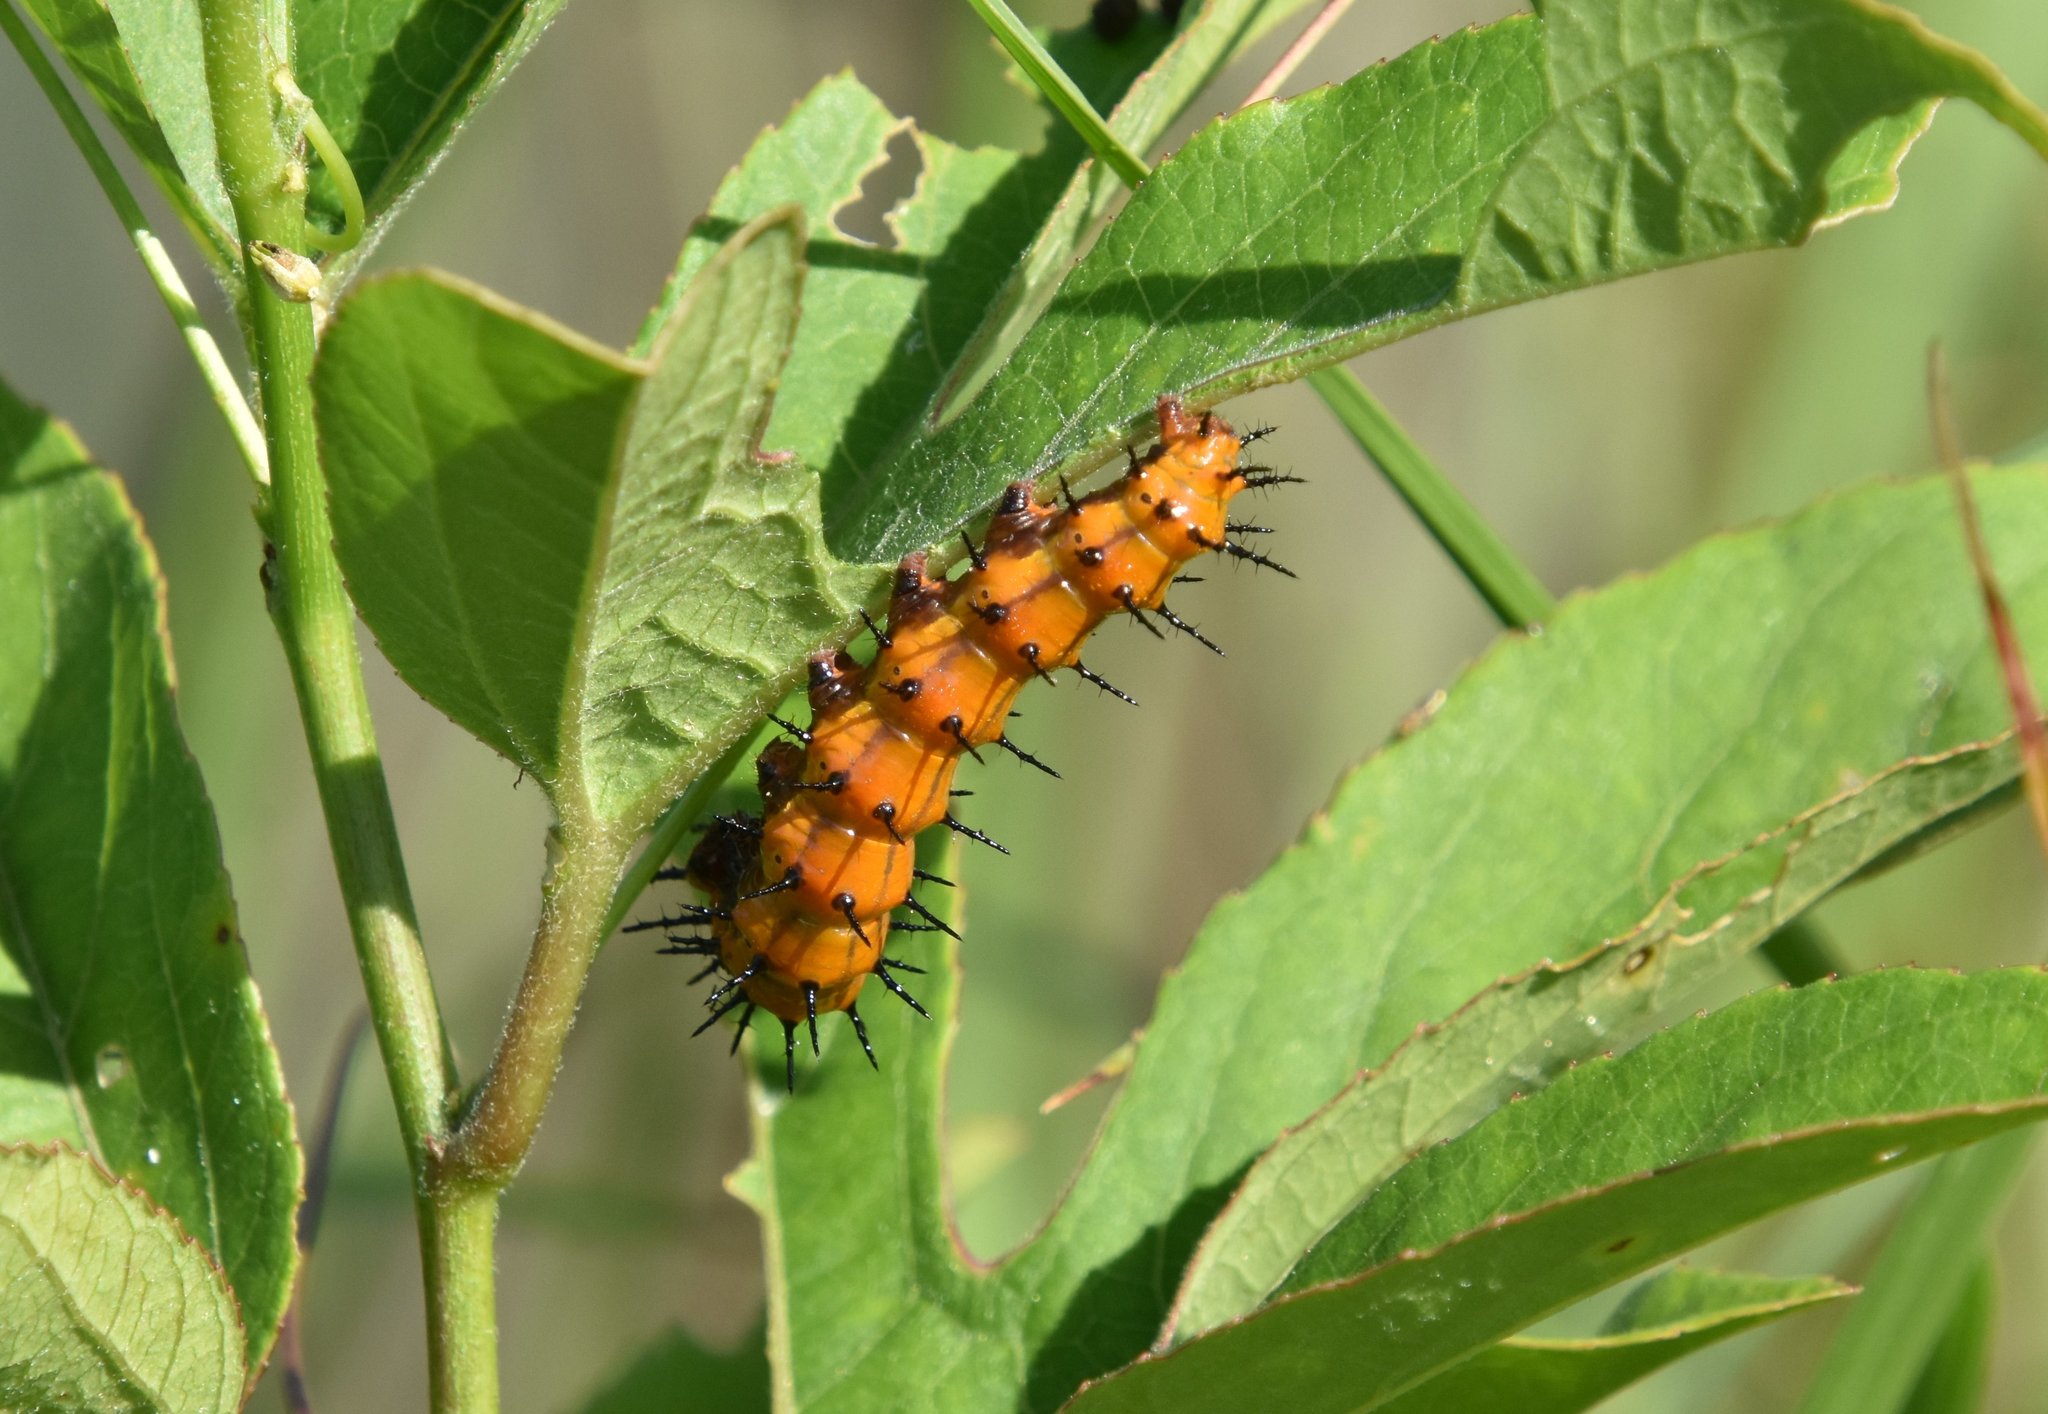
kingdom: Animalia
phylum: Arthropoda
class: Insecta
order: Lepidoptera
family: Nymphalidae
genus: Dione
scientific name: Dione vanillae
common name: Gulf fritillary
